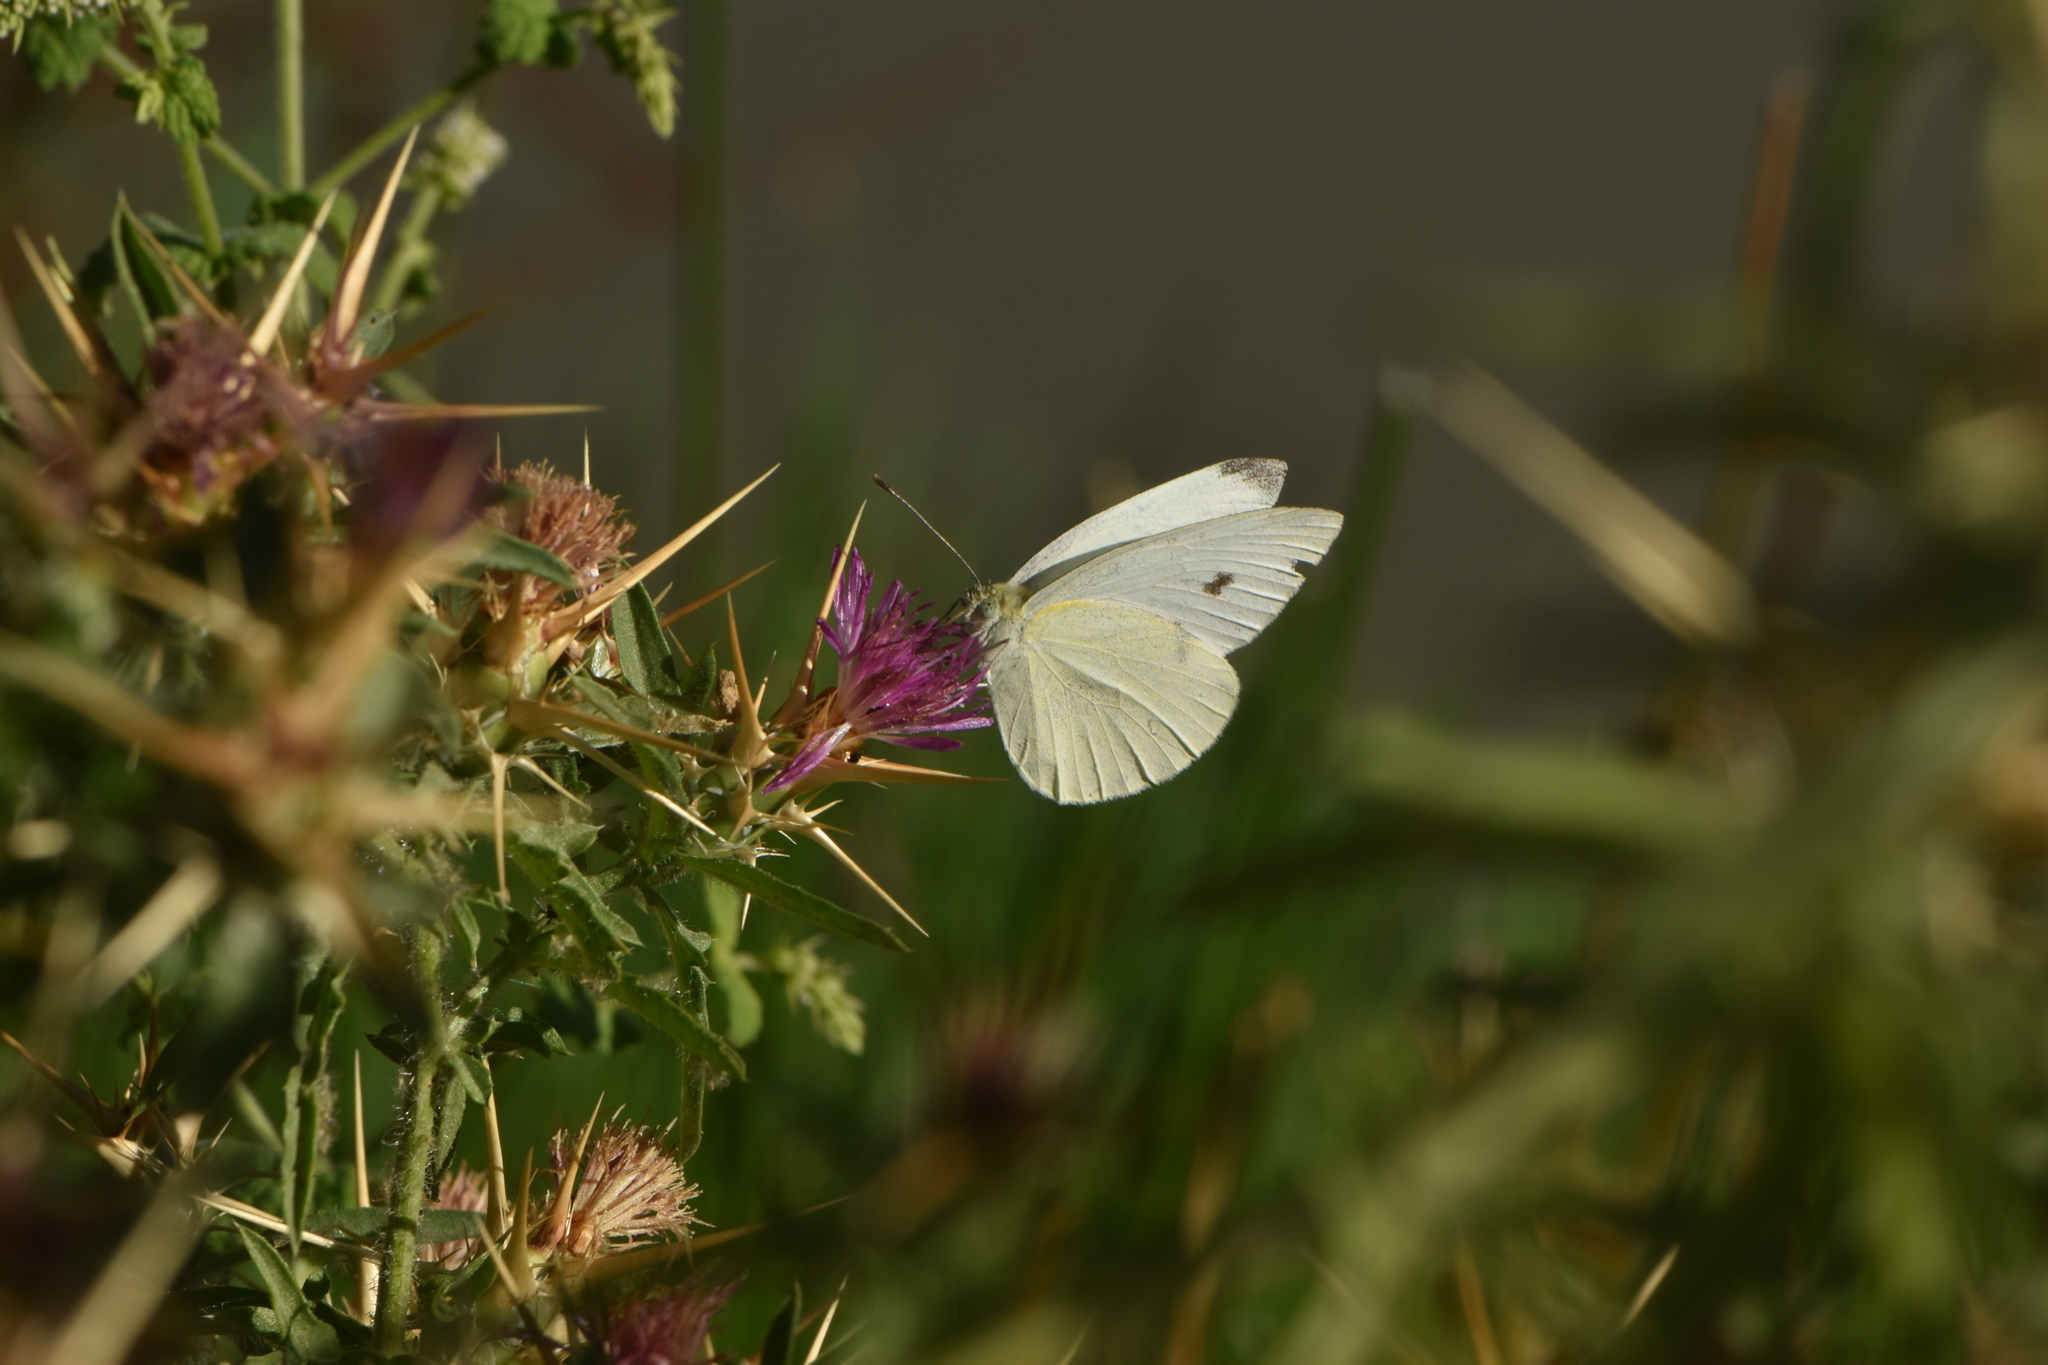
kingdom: Animalia
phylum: Arthropoda
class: Insecta
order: Lepidoptera
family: Pieridae
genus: Pieris
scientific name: Pieris rapae
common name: Small white
